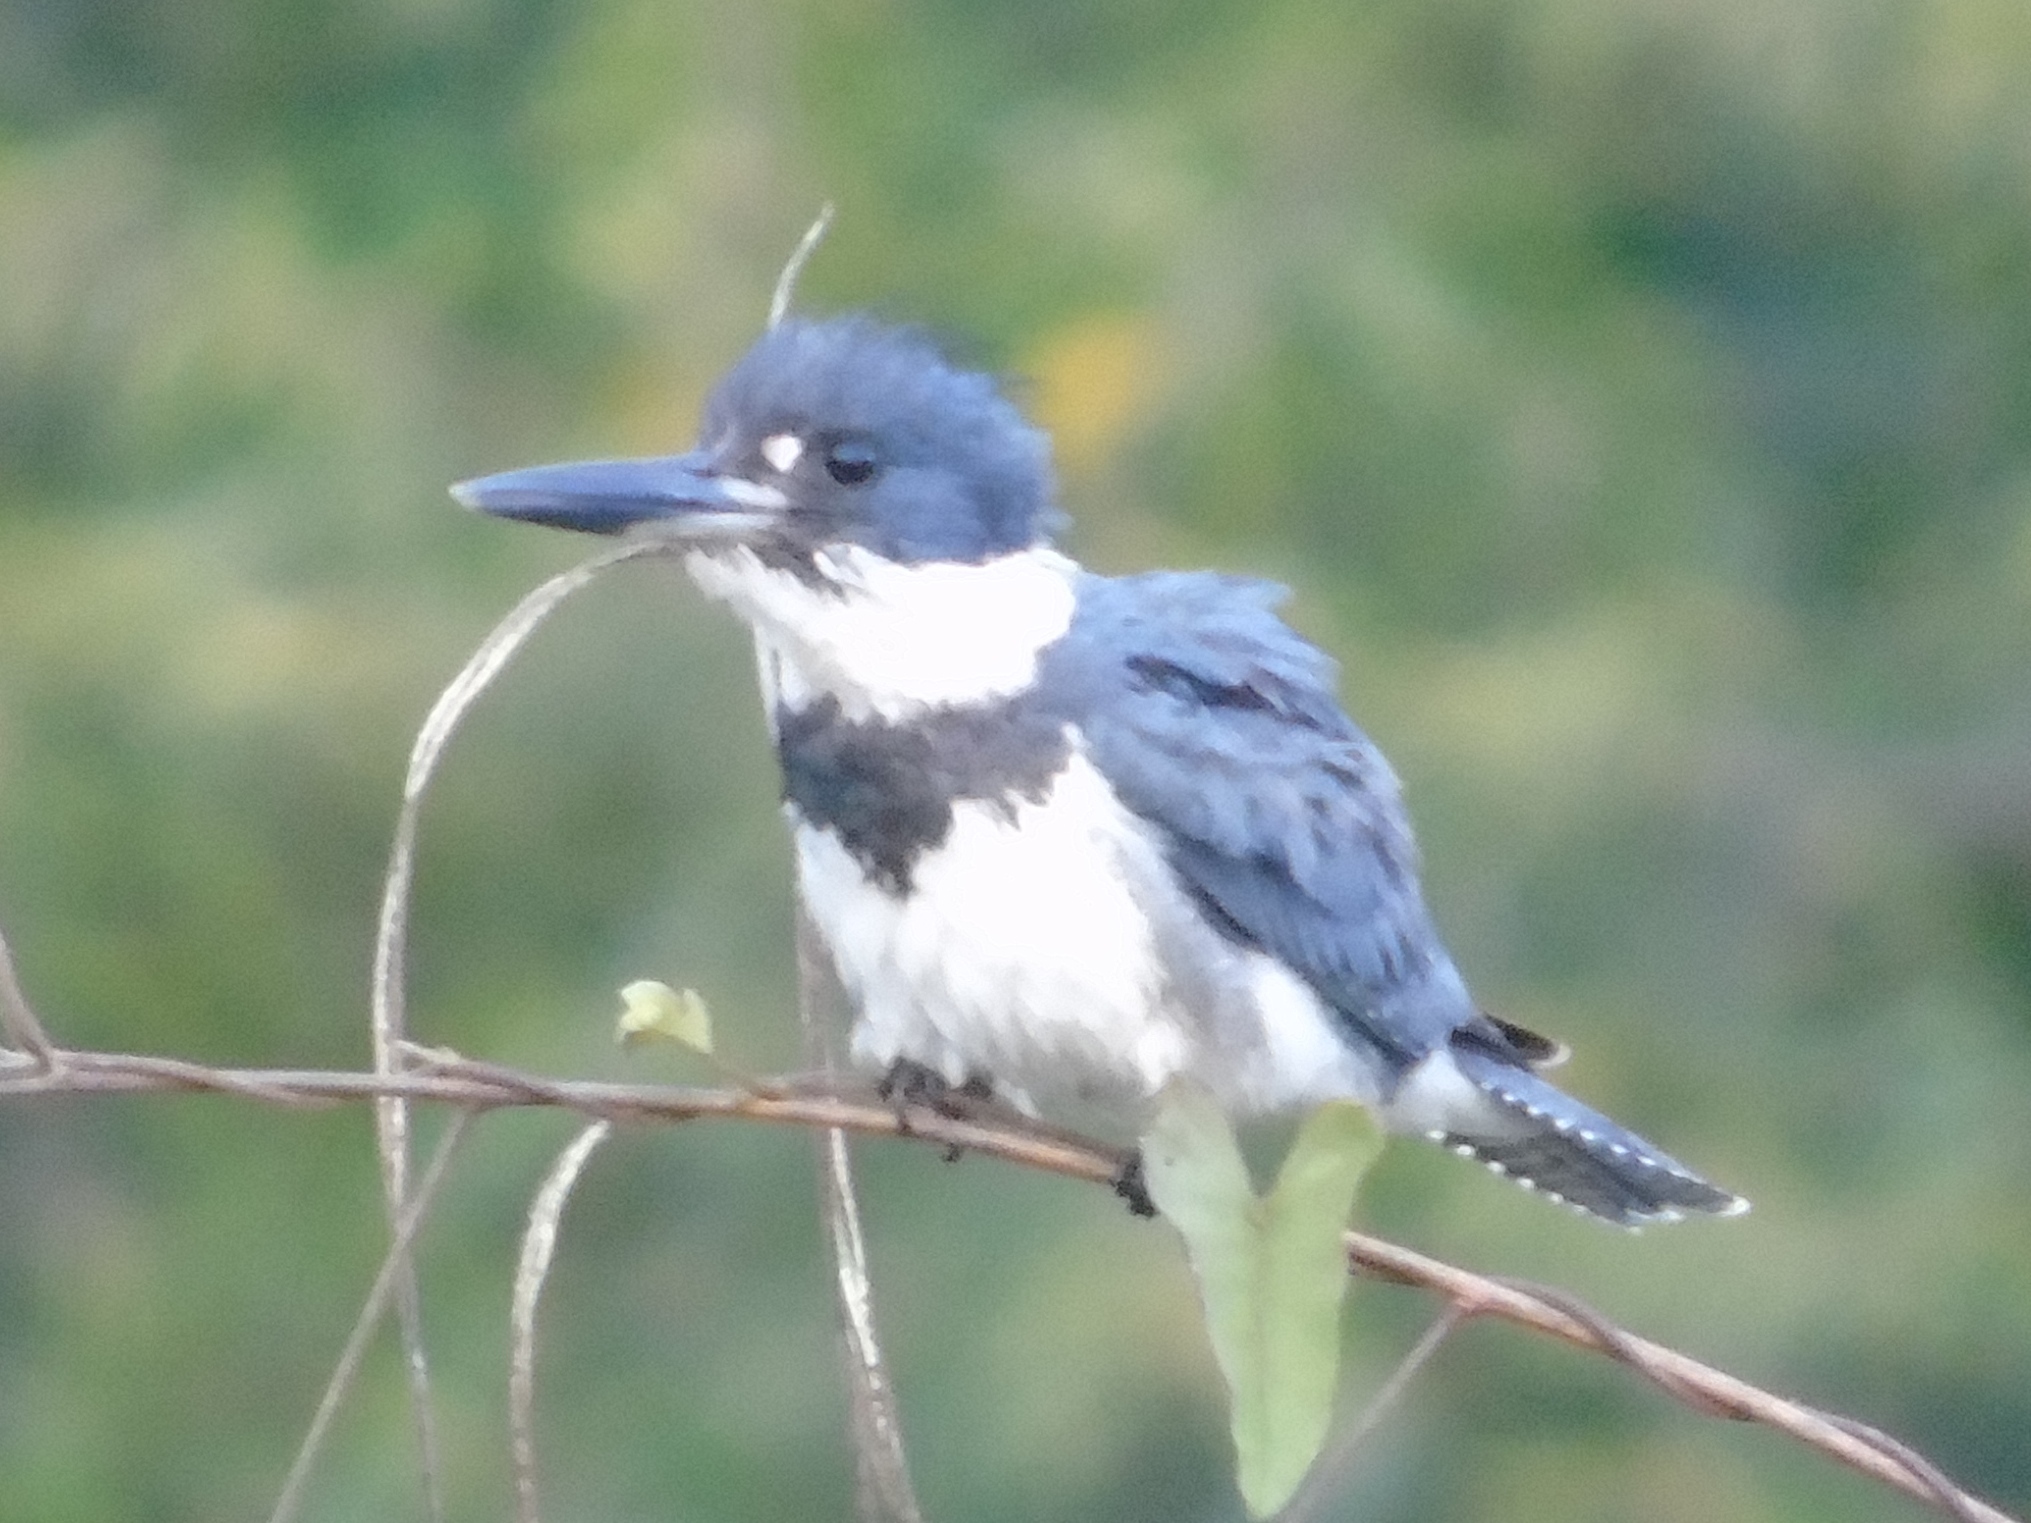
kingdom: Animalia
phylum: Chordata
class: Aves
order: Coraciiformes
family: Alcedinidae
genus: Megaceryle
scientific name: Megaceryle alcyon
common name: Belted kingfisher
